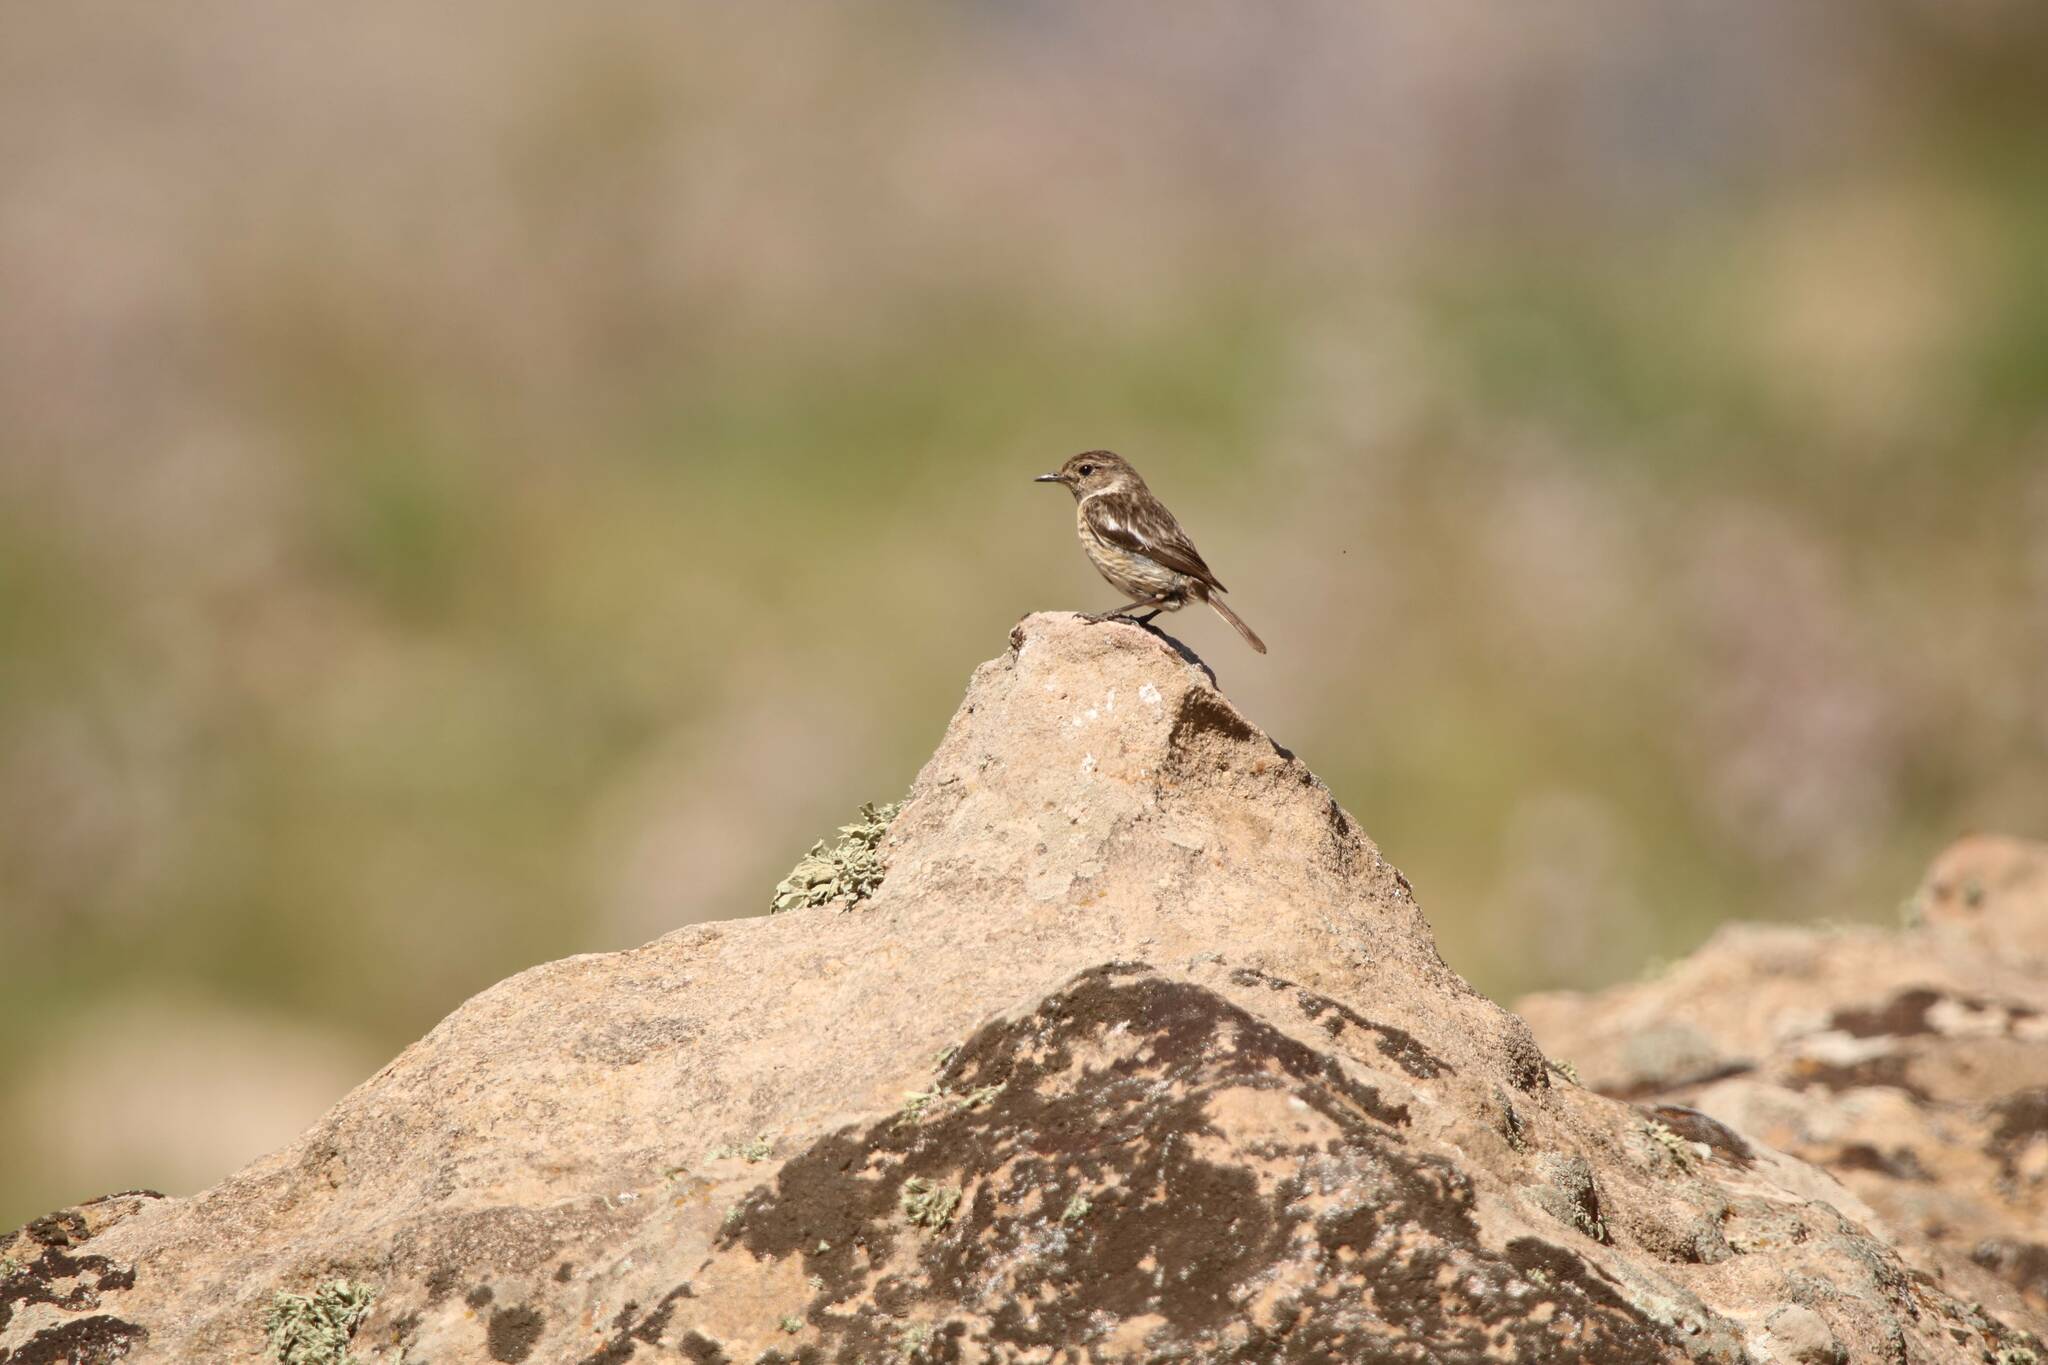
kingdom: Animalia
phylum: Chordata
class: Aves
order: Passeriformes
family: Muscicapidae
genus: Saxicola
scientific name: Saxicola rubicola
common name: European stonechat
